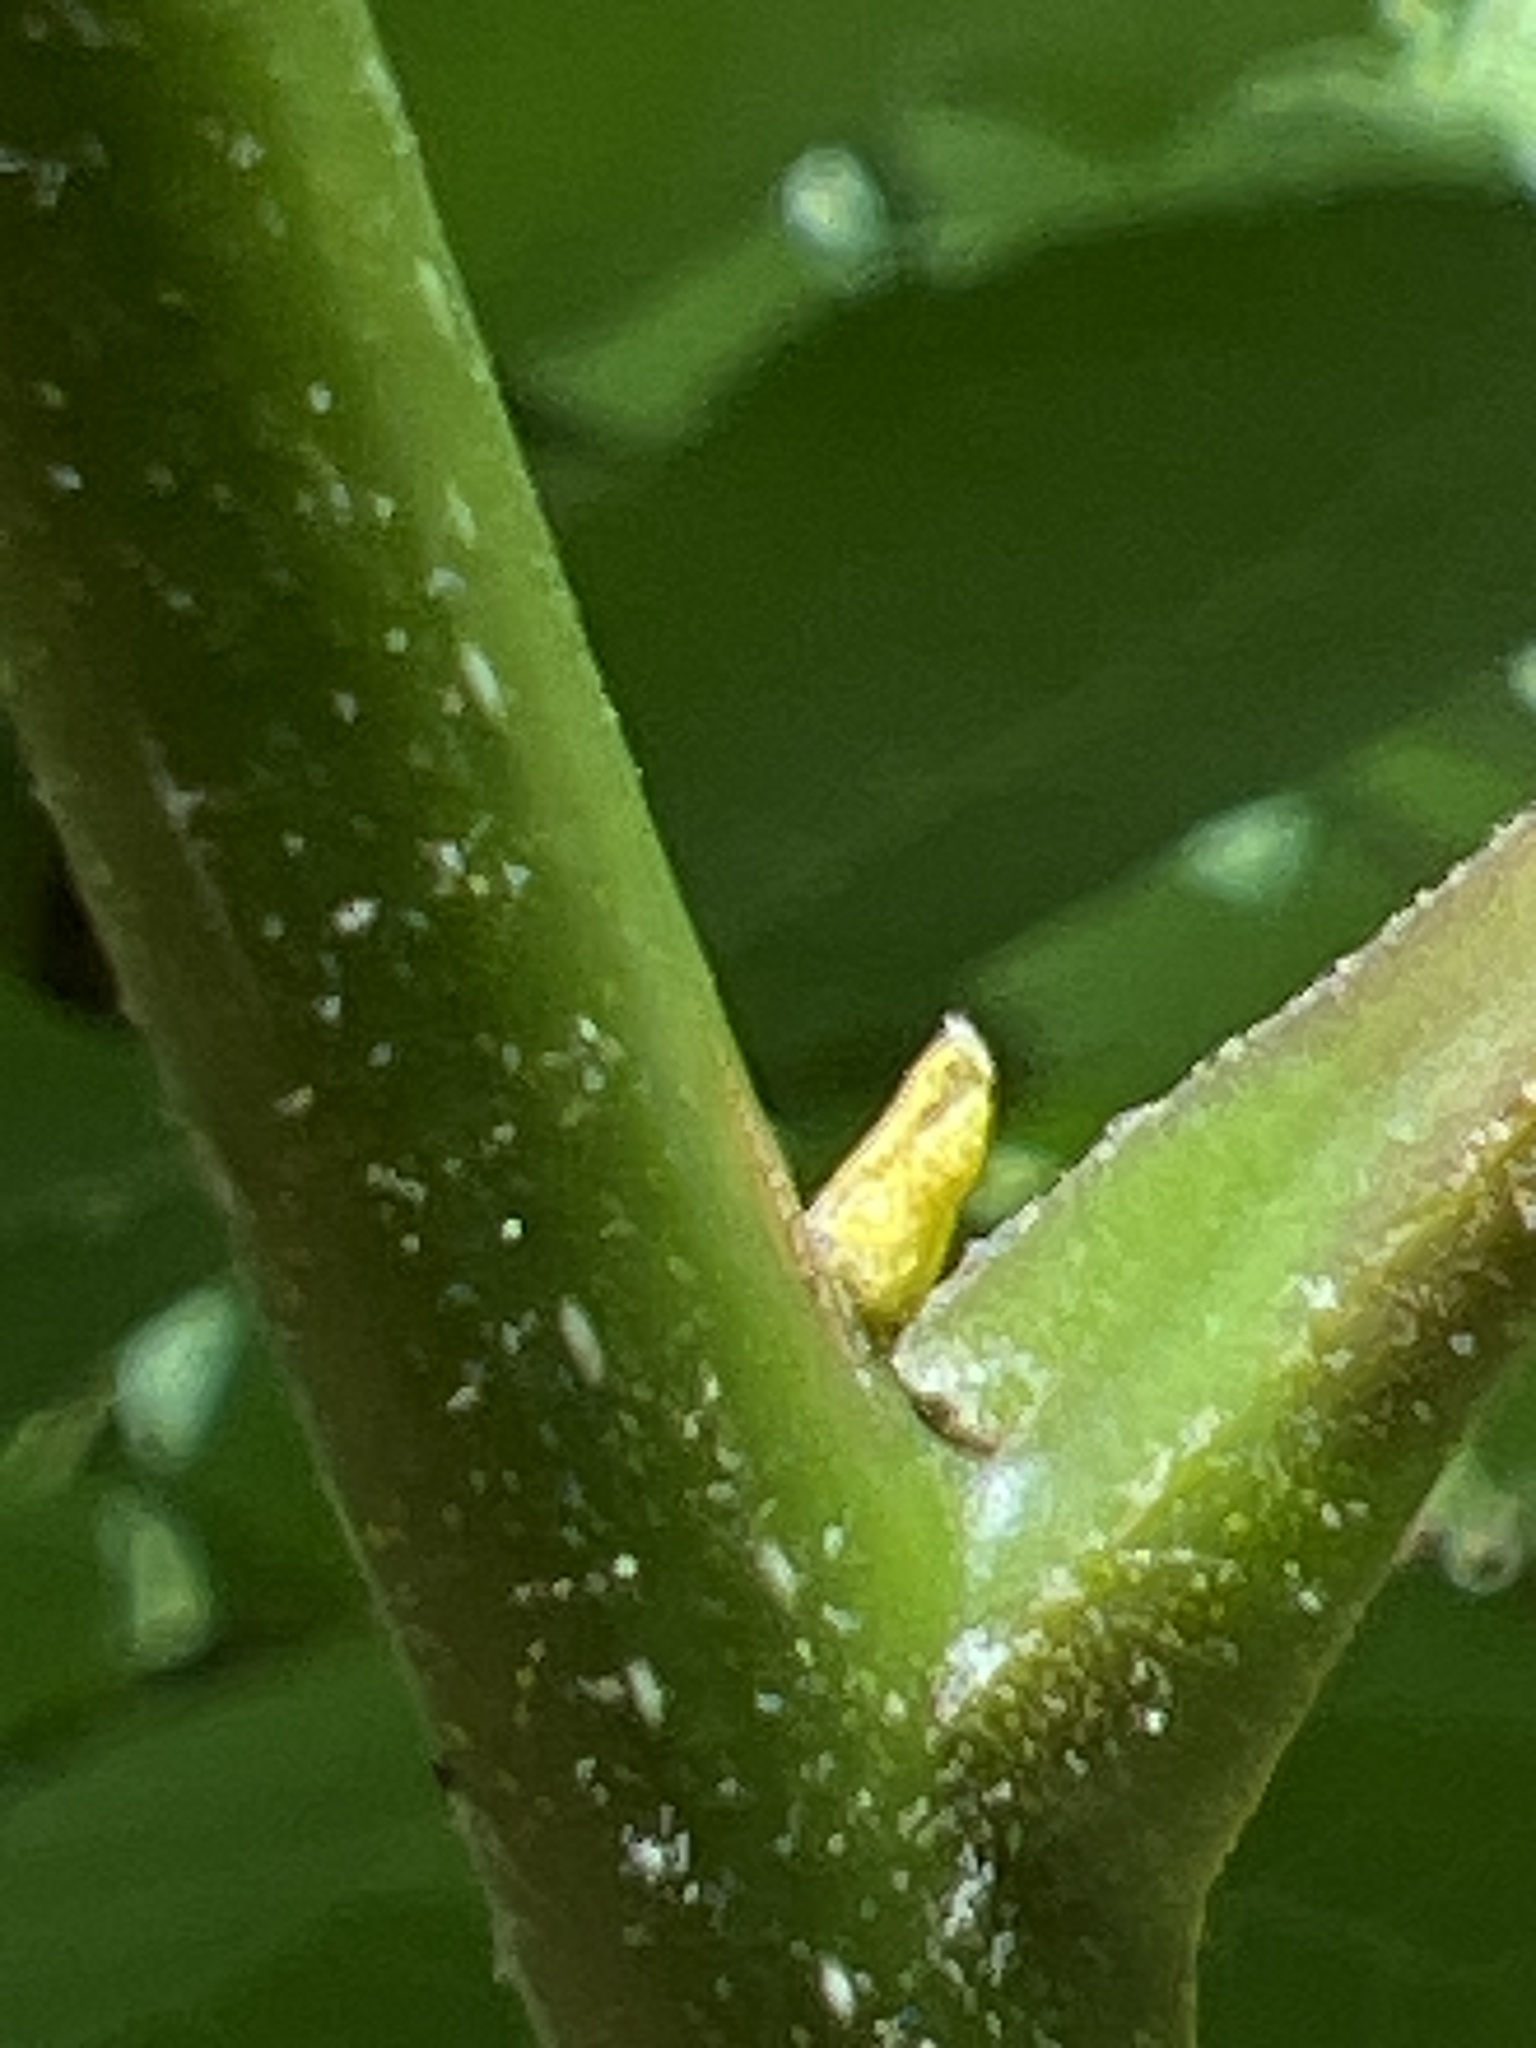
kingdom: Plantae
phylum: Tracheophyta
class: Magnoliopsida
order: Fagales
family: Juglandaceae
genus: Carya
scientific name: Carya cordiformis
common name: Bitternut hickory
